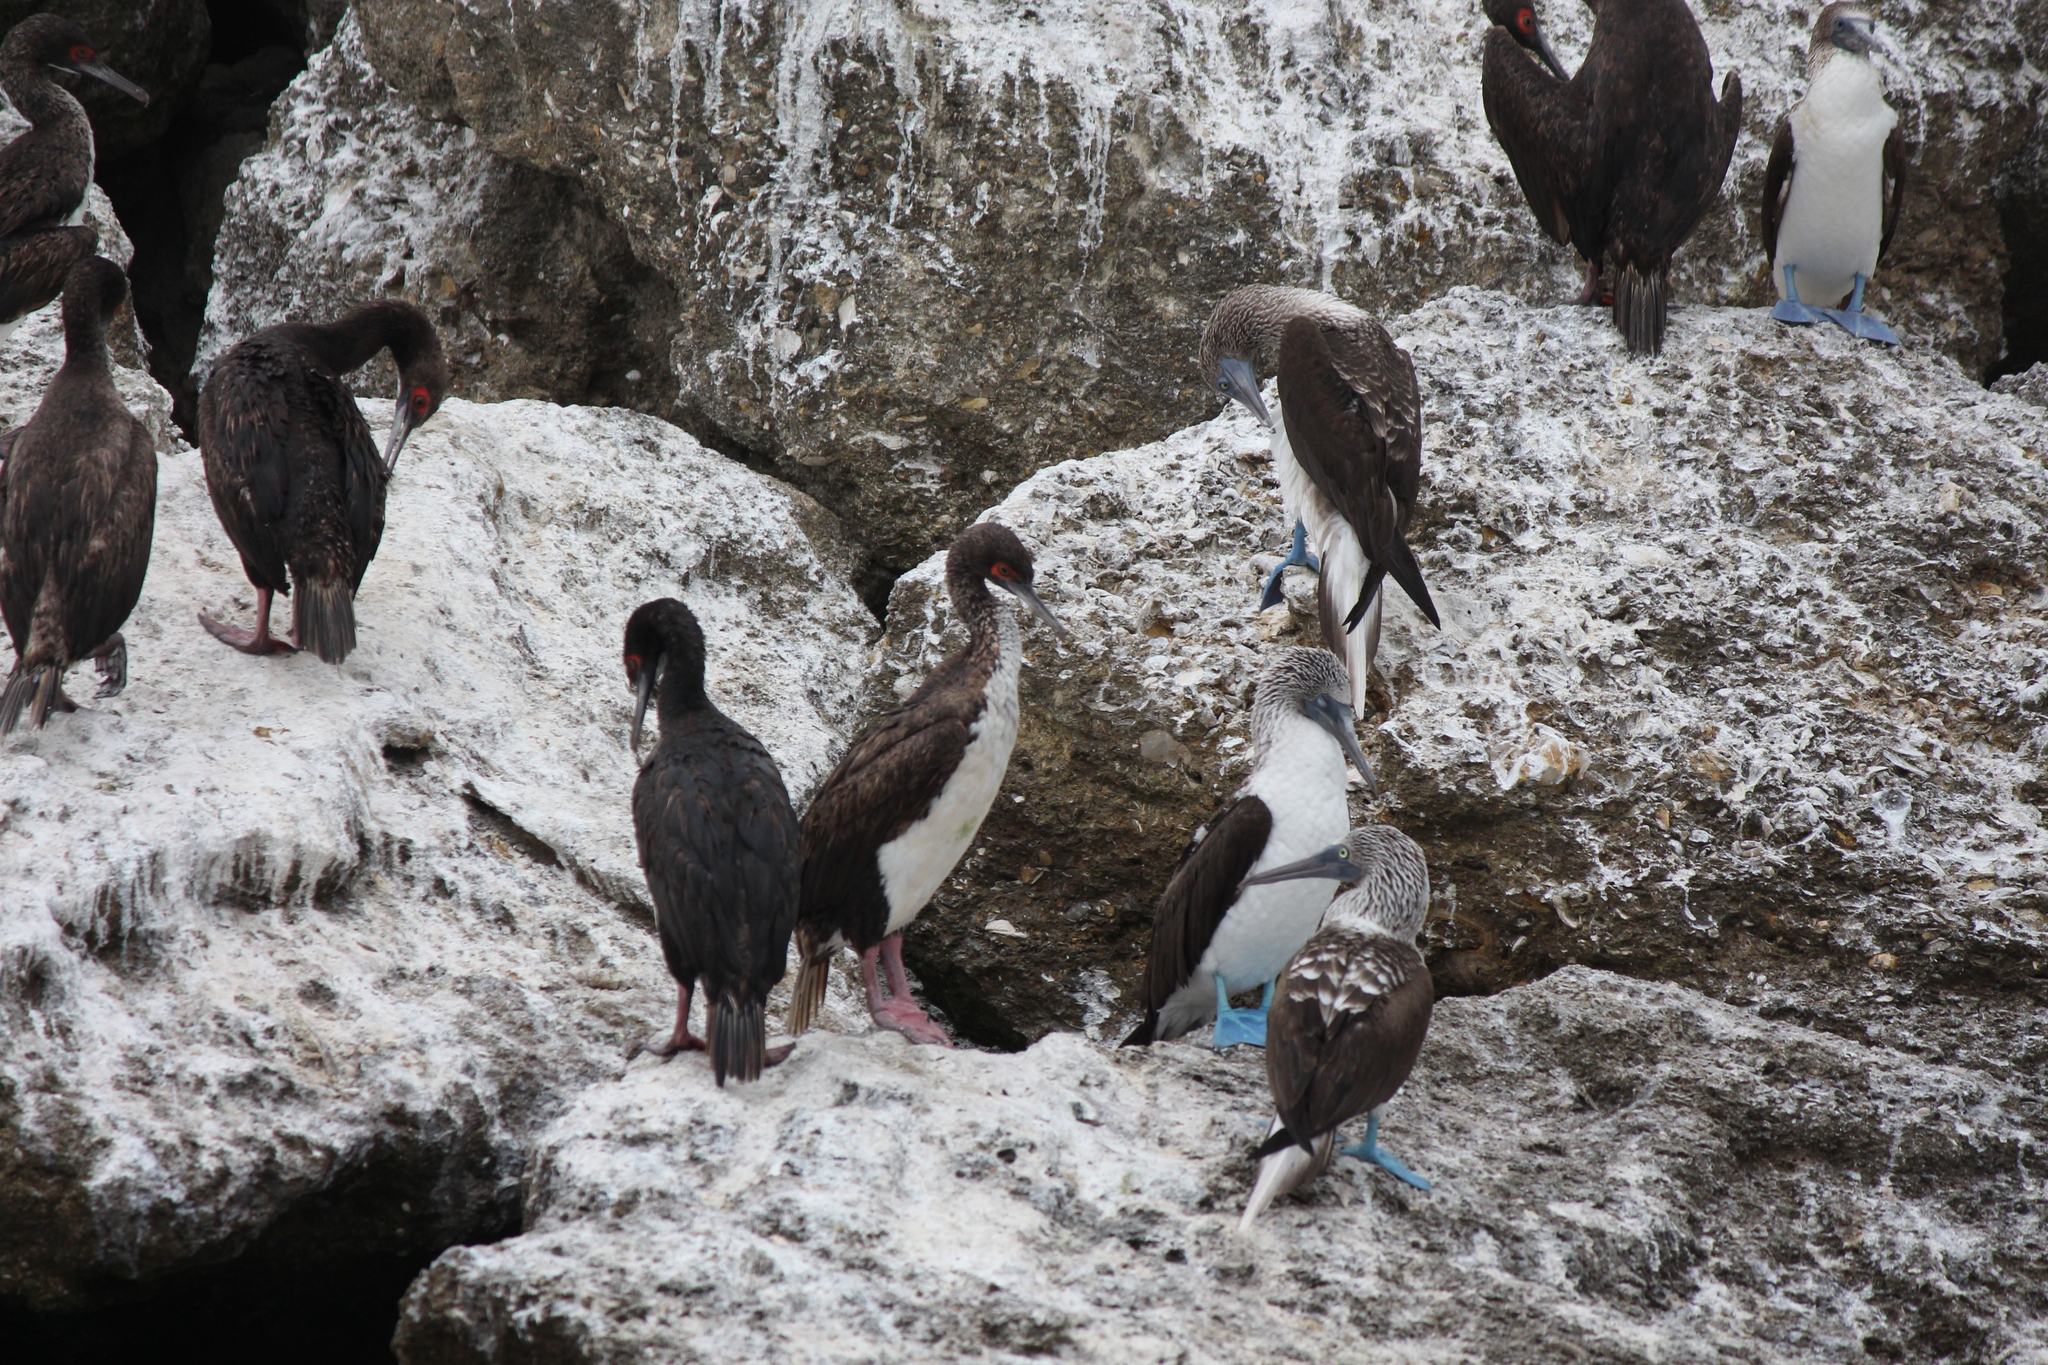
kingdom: Animalia
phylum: Chordata
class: Aves
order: Suliformes
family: Phalacrocoracidae
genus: Leucocarbo
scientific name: Leucocarbo bougainvillii
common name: Guanay cormorant
